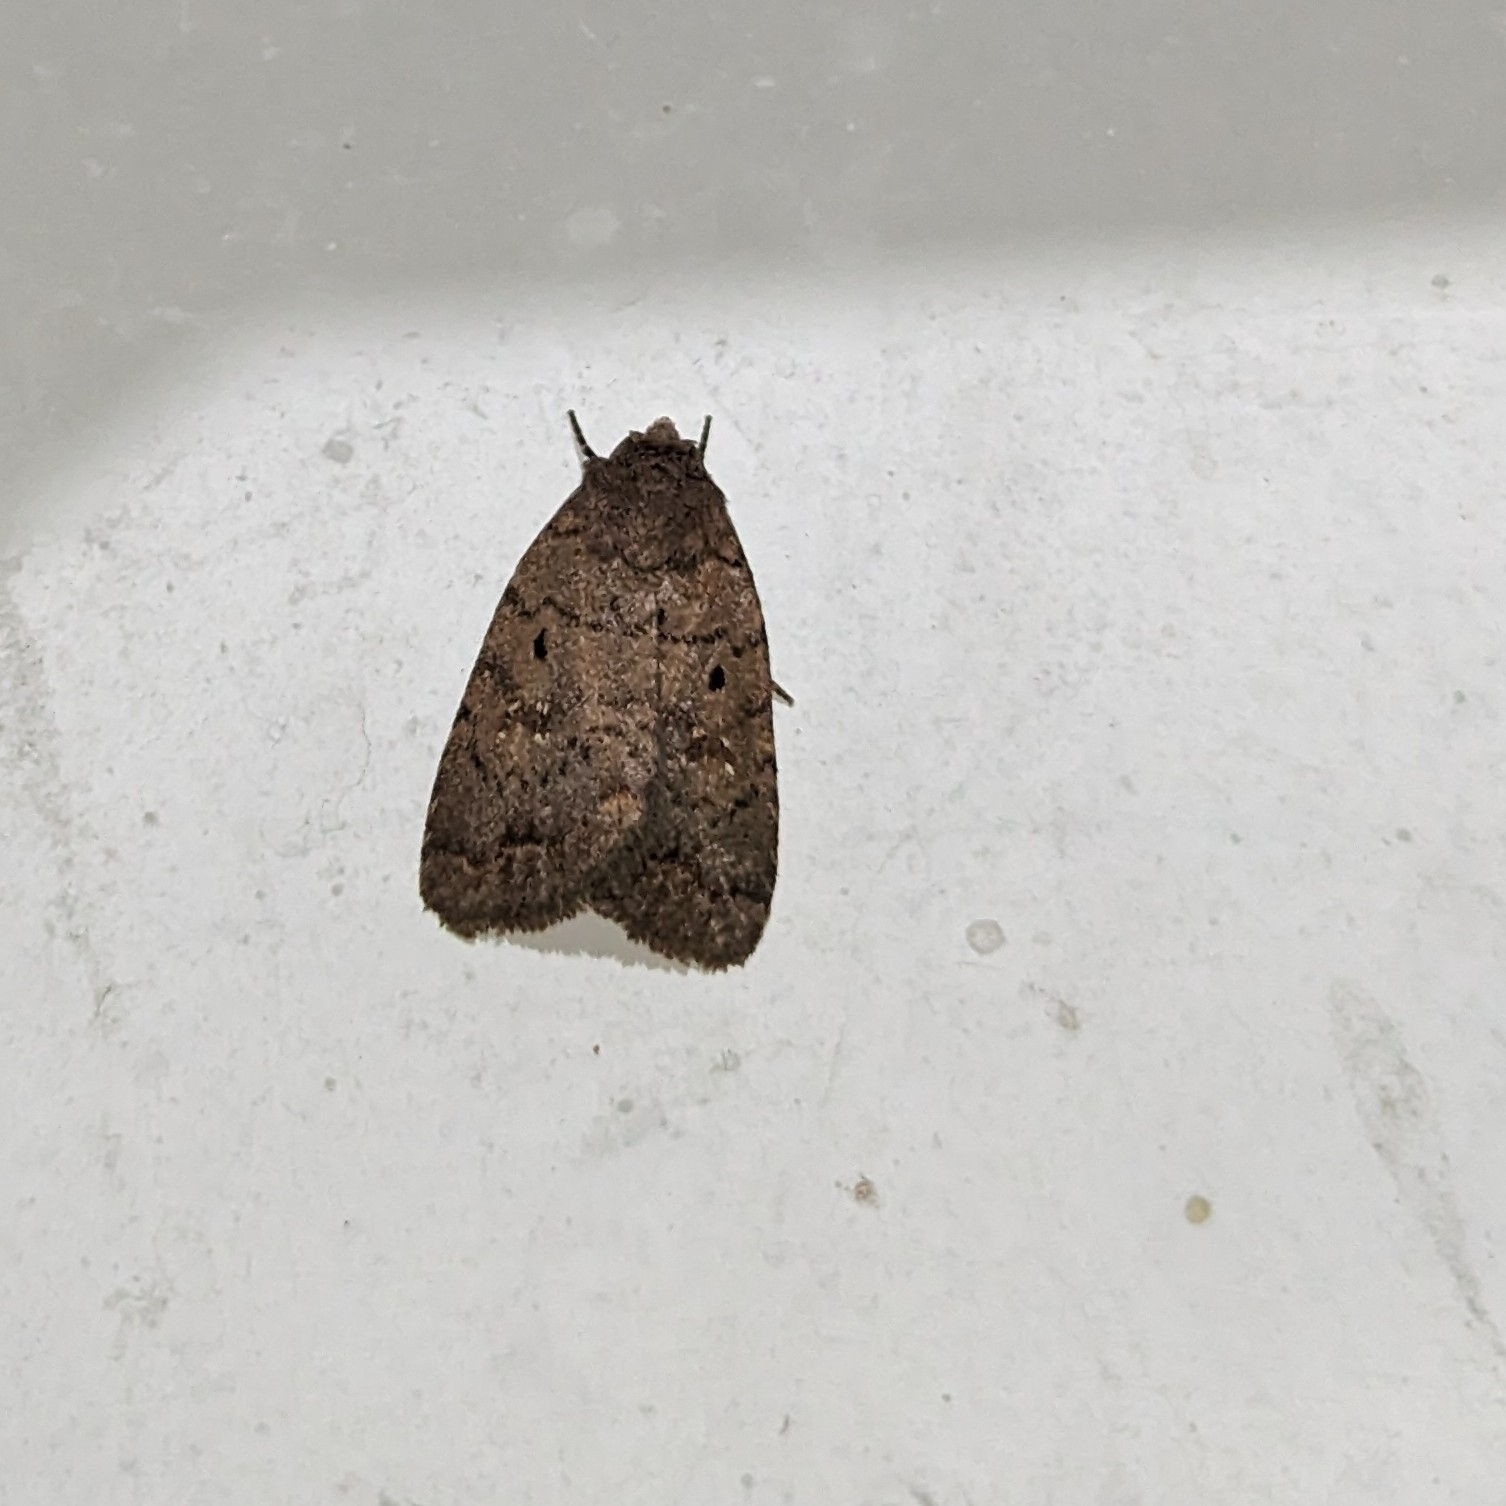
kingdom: Animalia
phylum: Arthropoda
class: Insecta
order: Lepidoptera
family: Noctuidae
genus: Athetis
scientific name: Athetis tarda
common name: Slowpoke moth
